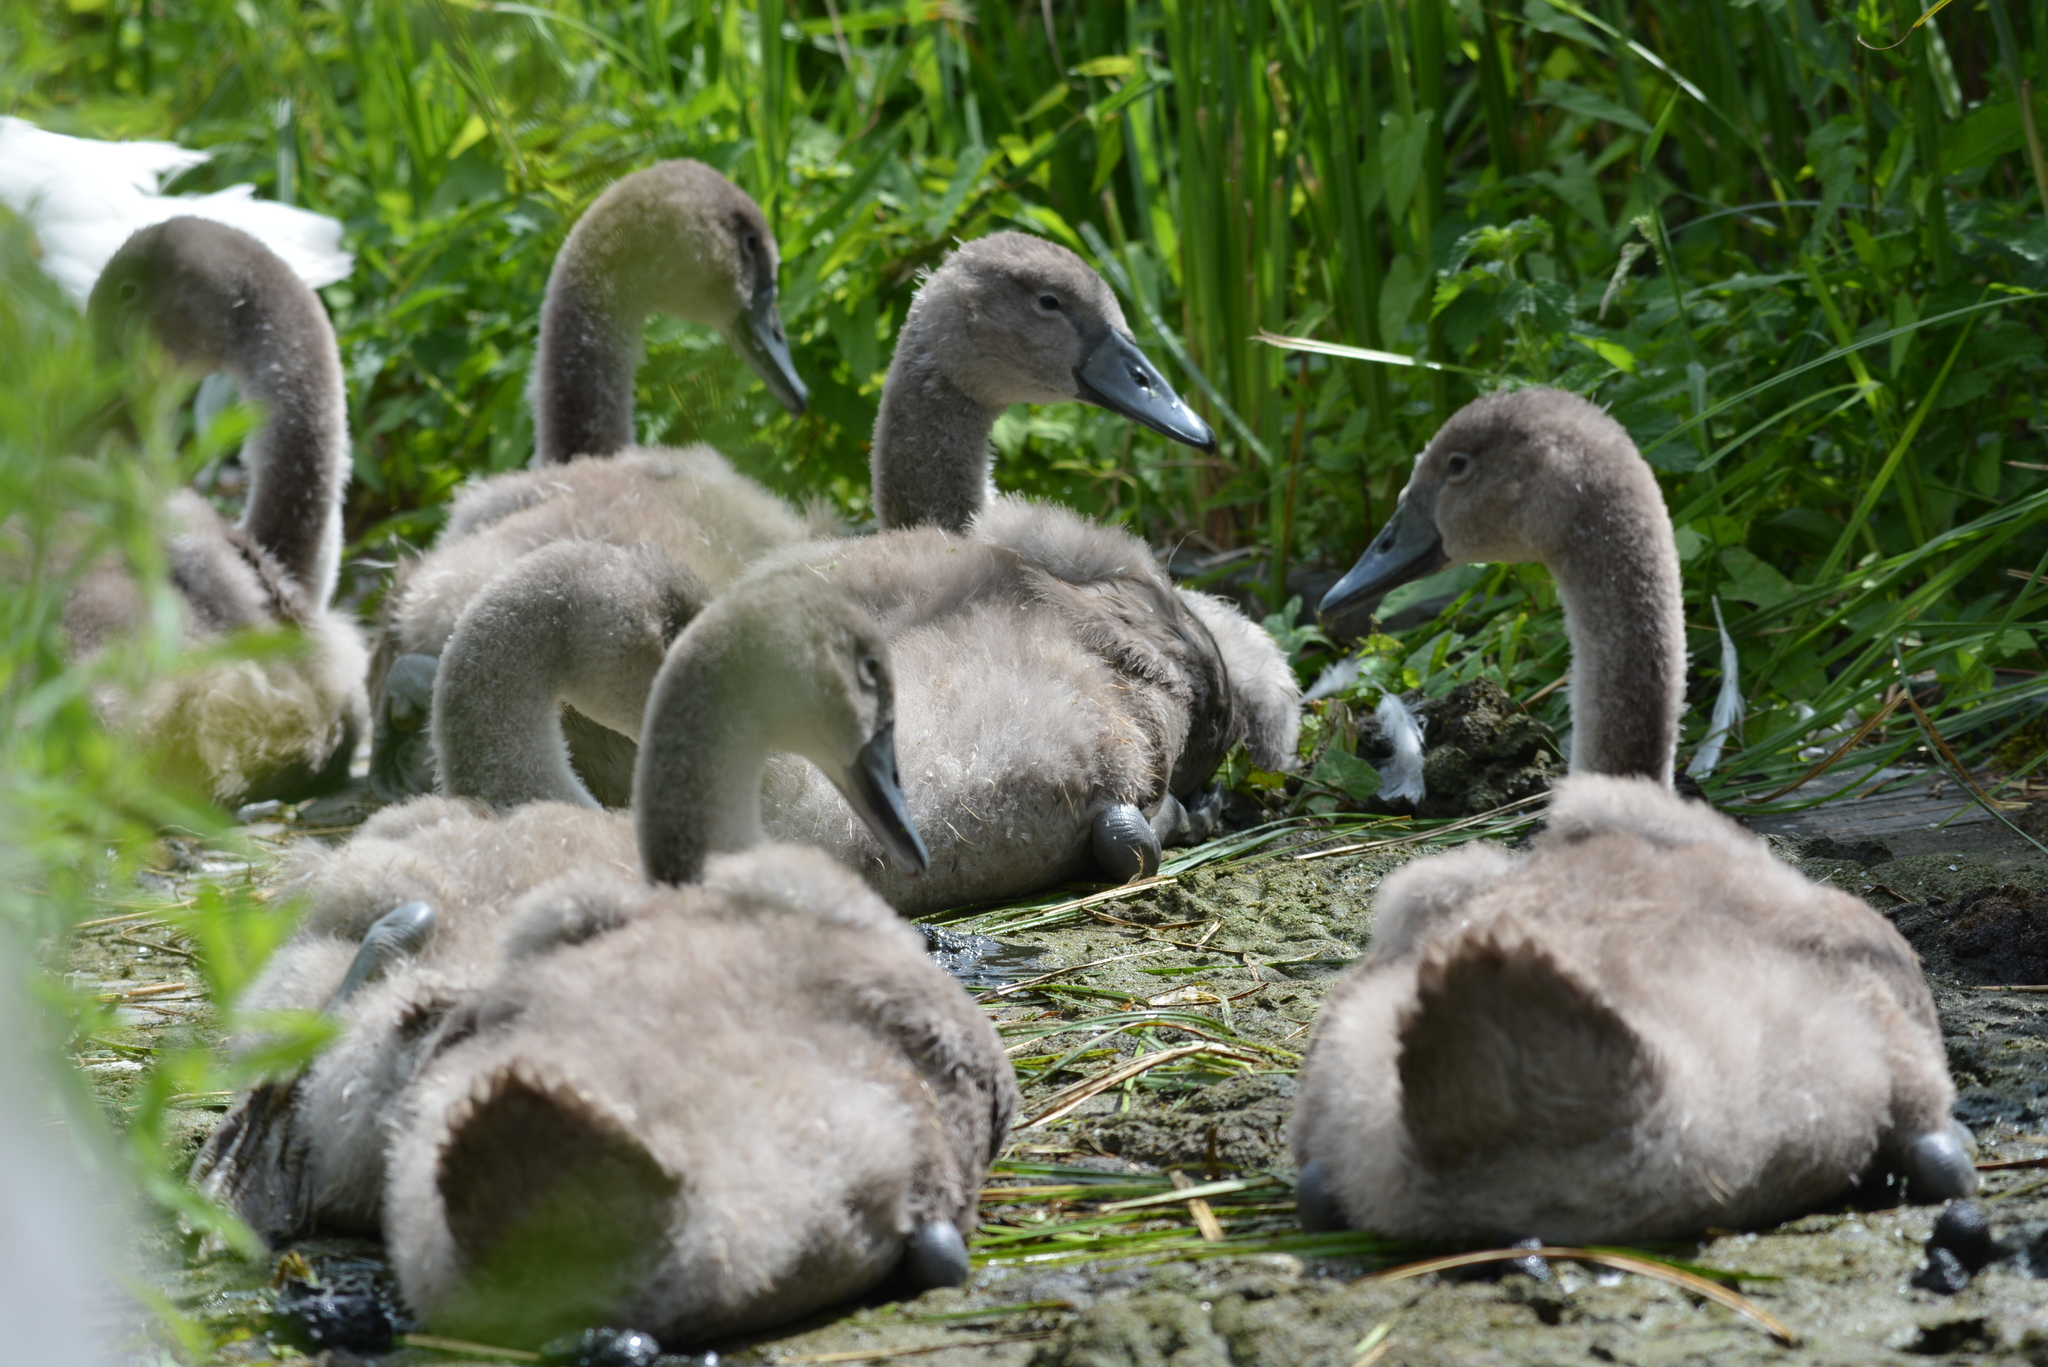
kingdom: Animalia
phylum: Chordata
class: Aves
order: Anseriformes
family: Anatidae
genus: Cygnus
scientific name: Cygnus olor
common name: Mute swan
